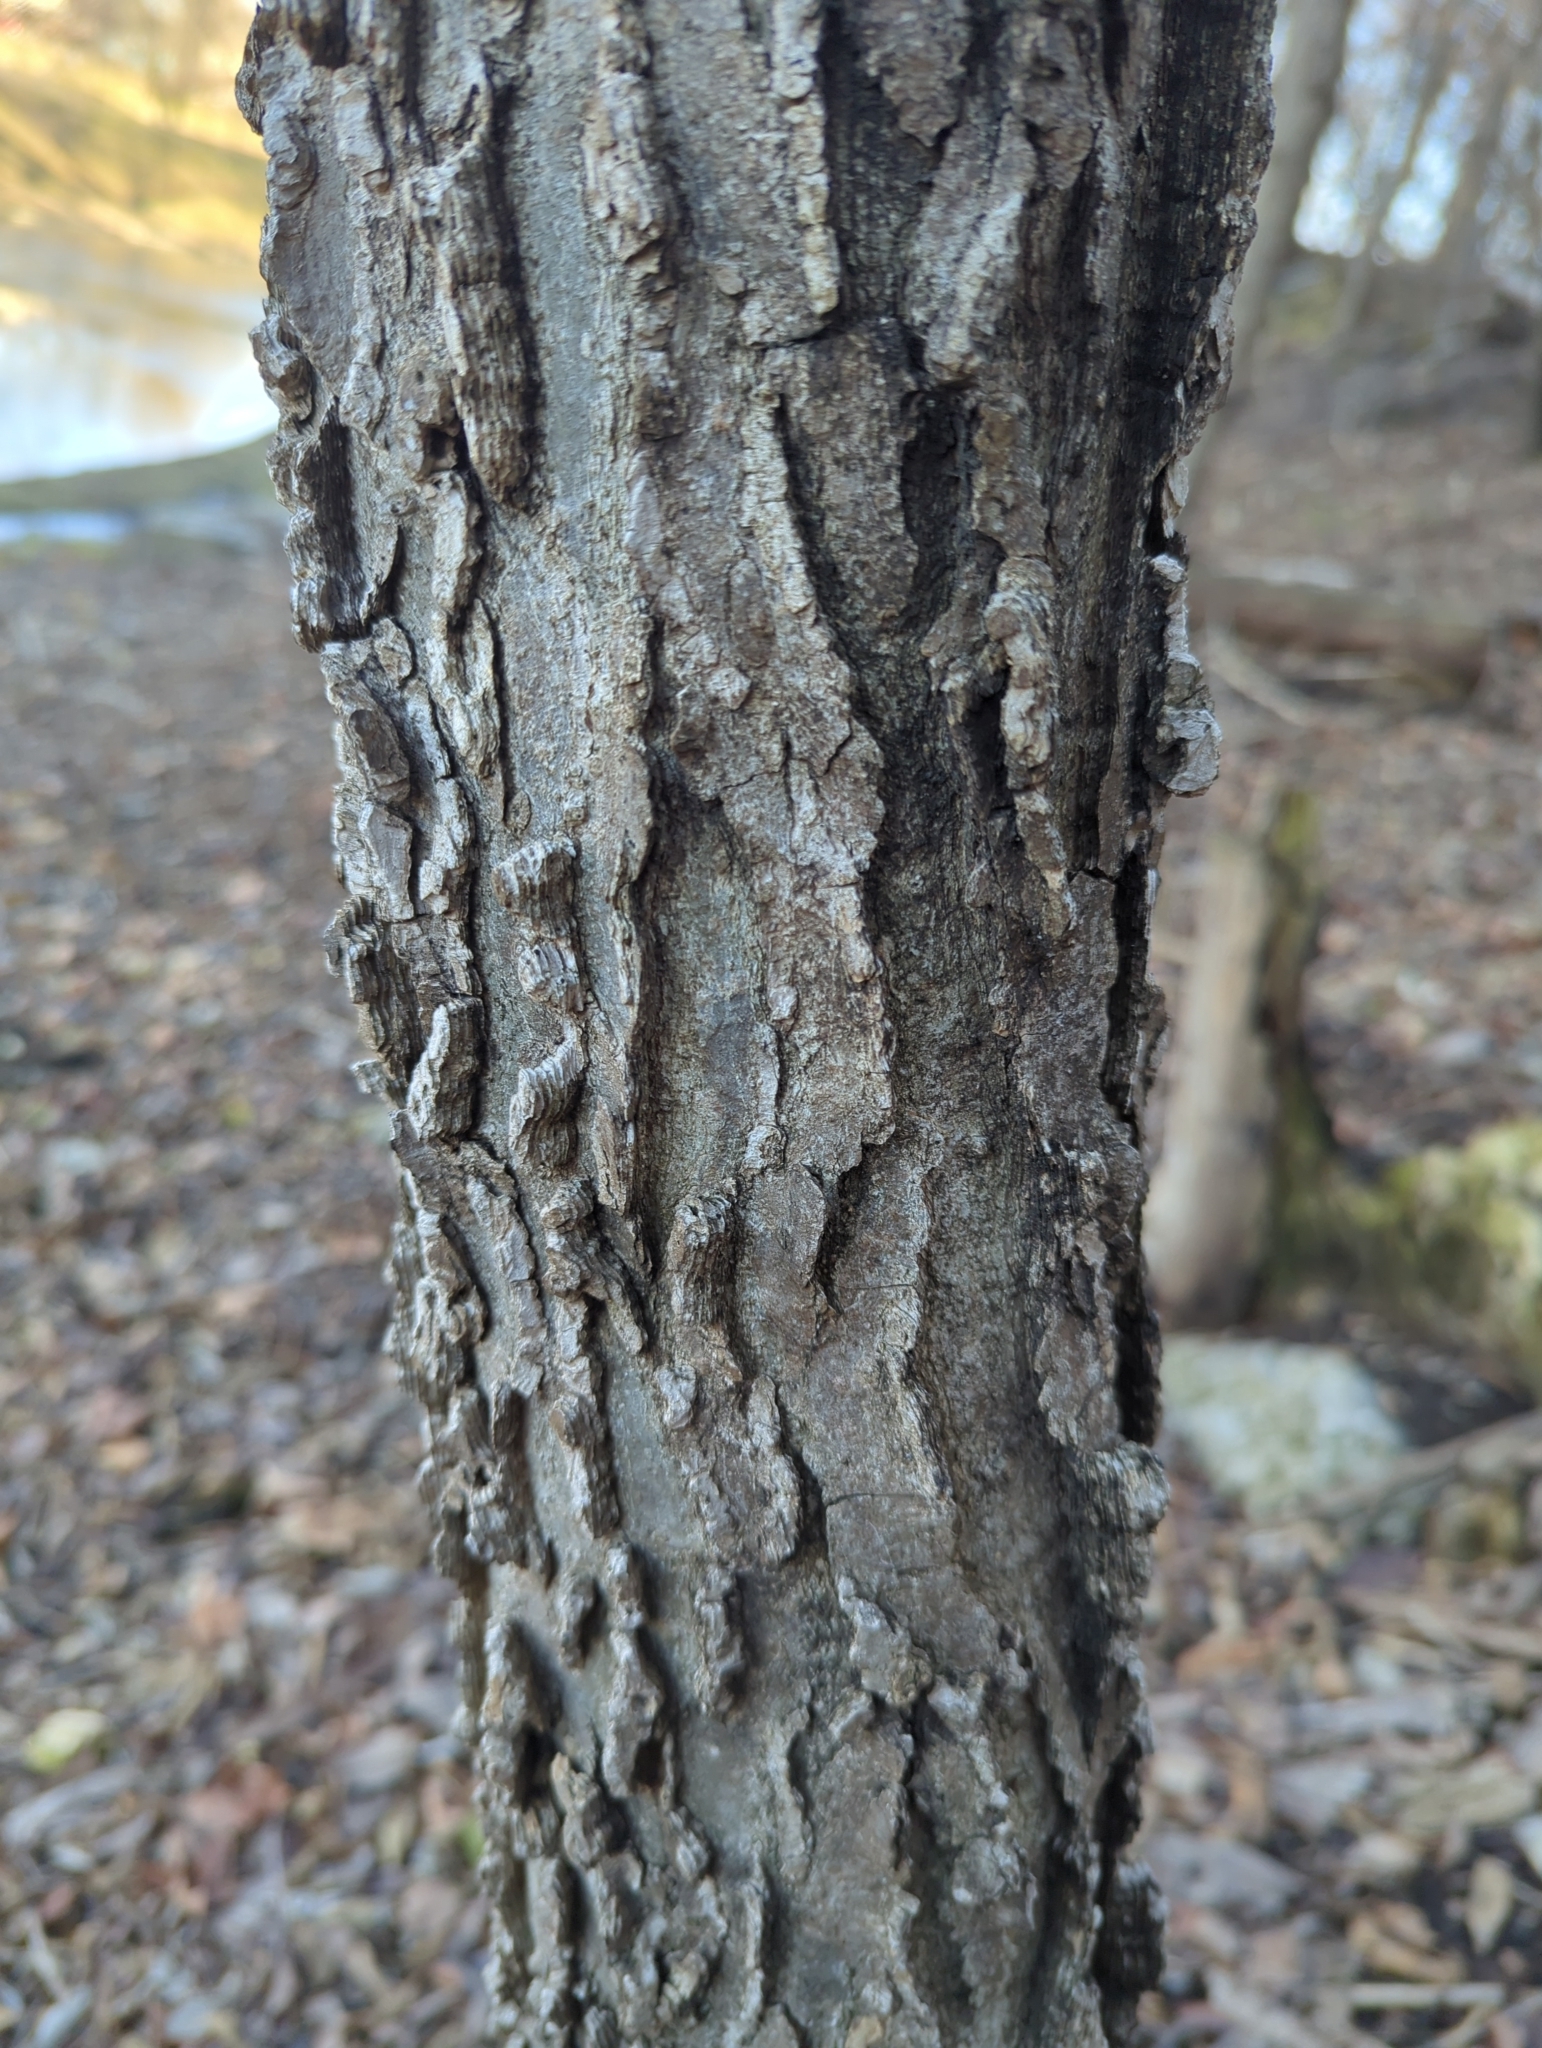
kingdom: Plantae
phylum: Tracheophyta
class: Magnoliopsida
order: Rosales
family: Cannabaceae
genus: Celtis
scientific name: Celtis occidentalis
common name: Common hackberry
